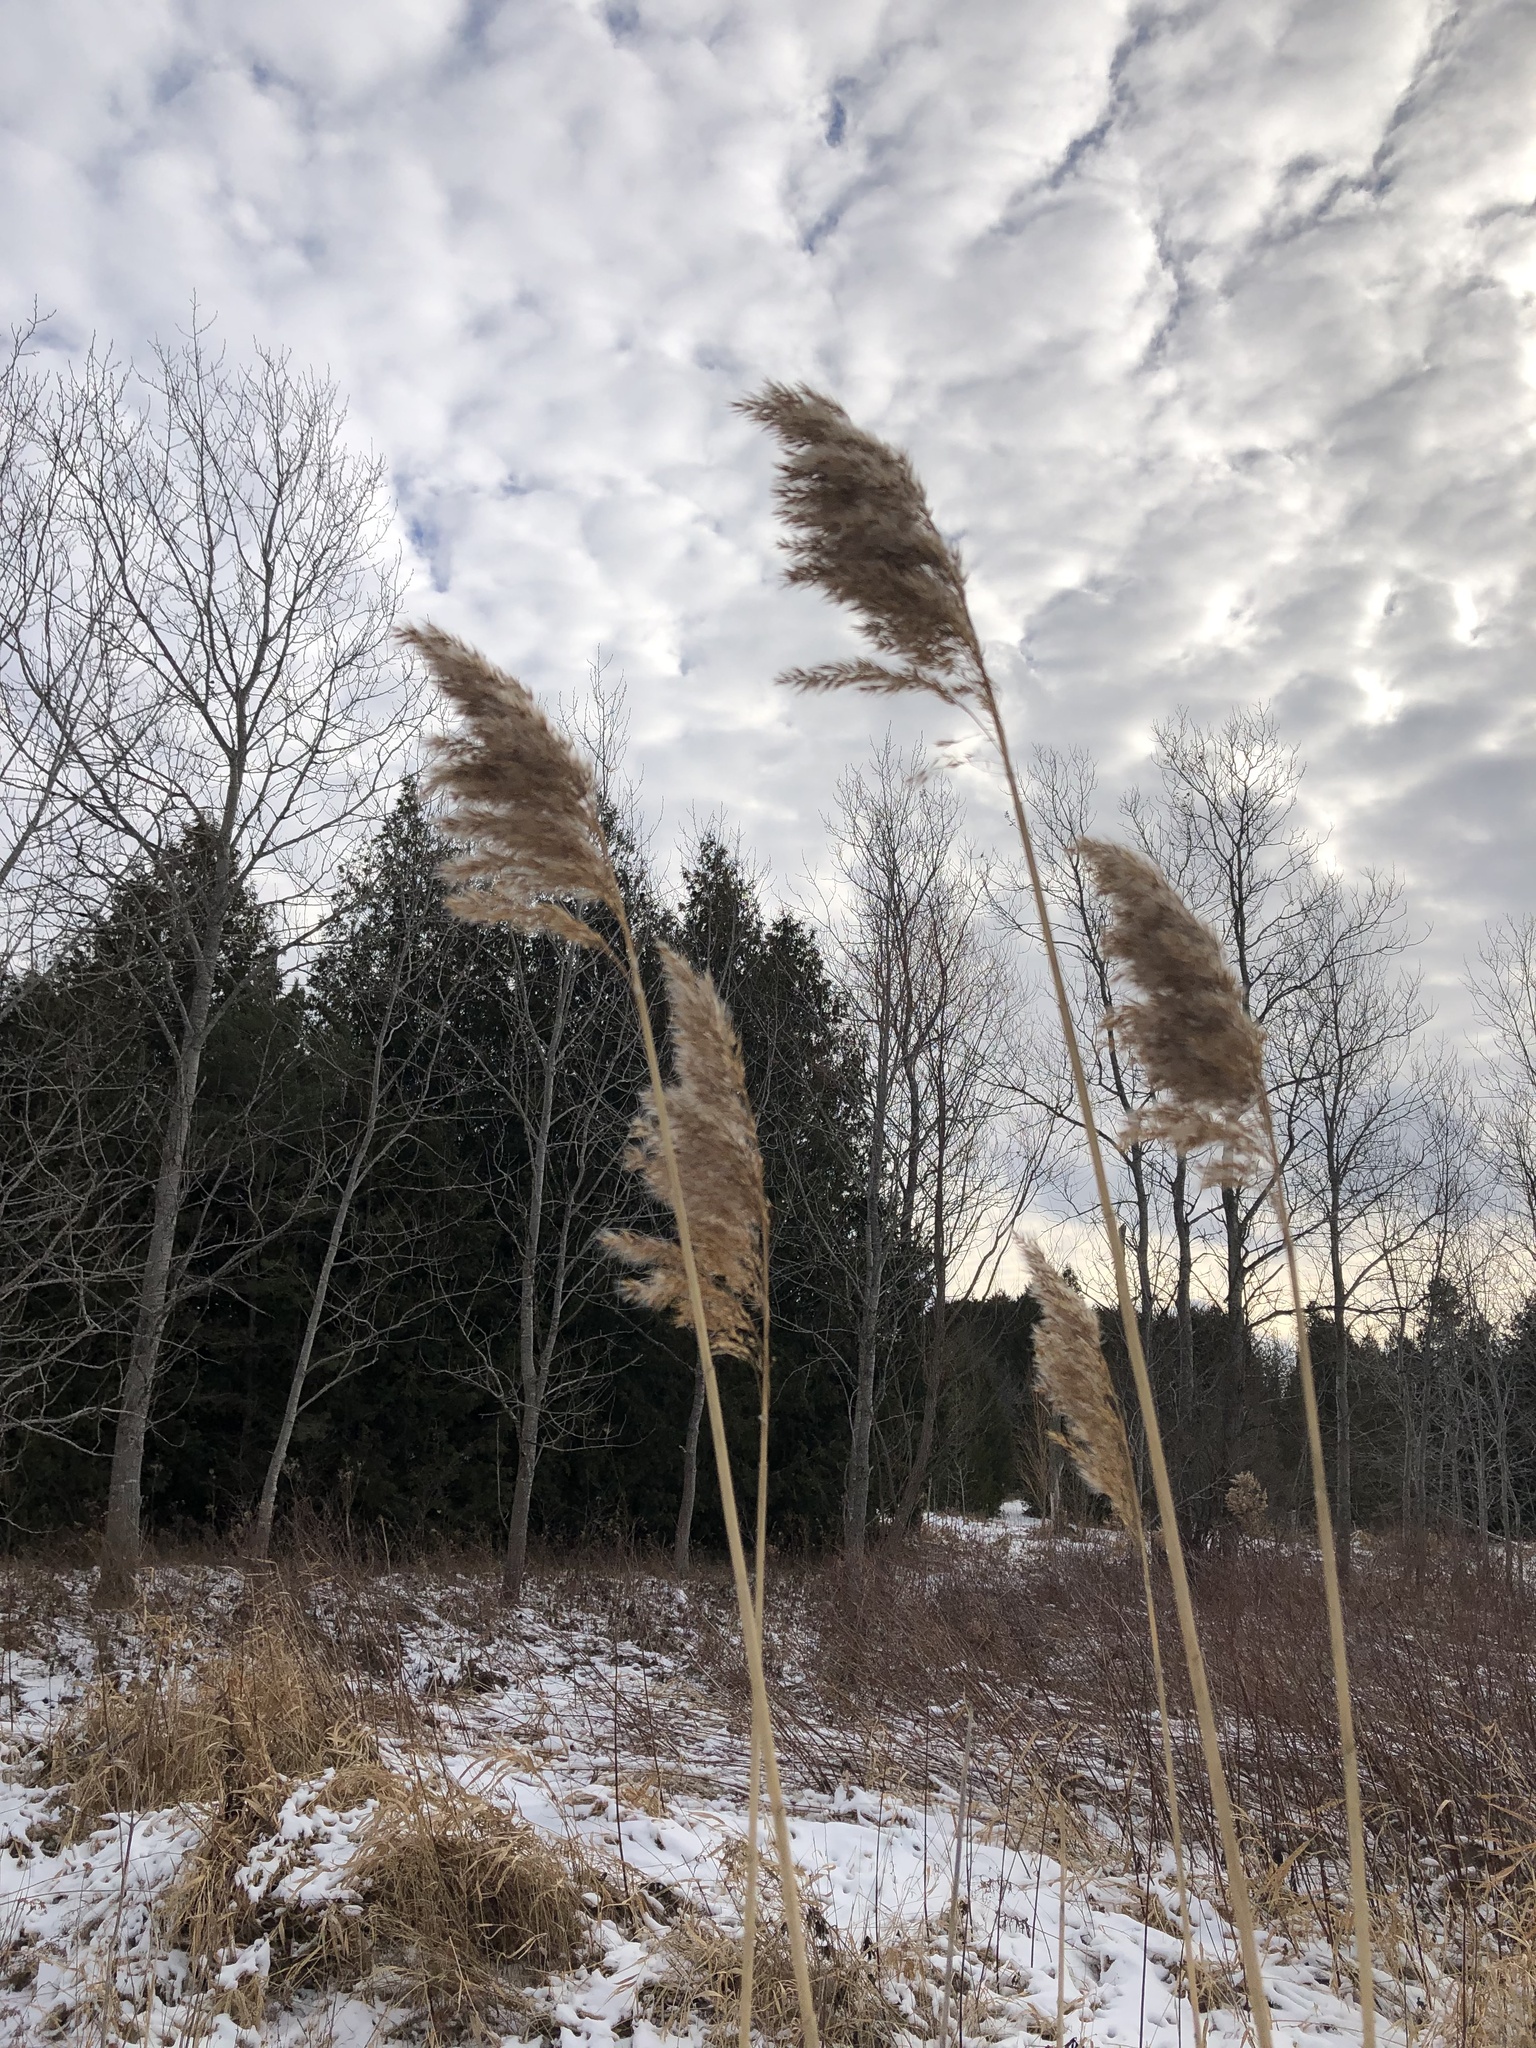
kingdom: Plantae
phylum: Tracheophyta
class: Liliopsida
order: Poales
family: Poaceae
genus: Phragmites
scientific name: Phragmites australis
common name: Common reed
